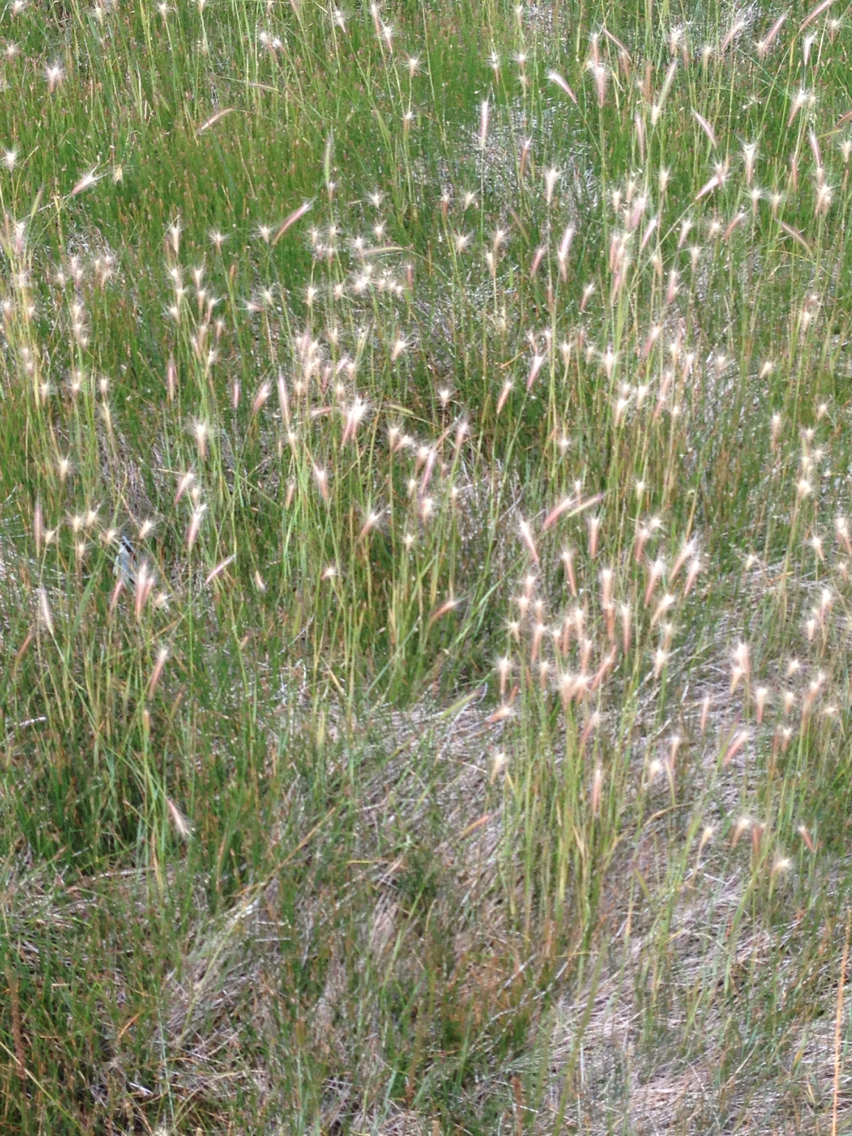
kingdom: Plantae
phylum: Tracheophyta
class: Liliopsida
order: Poales
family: Poaceae
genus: Hordeum
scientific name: Hordeum brachyantherum
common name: Meadow barley
